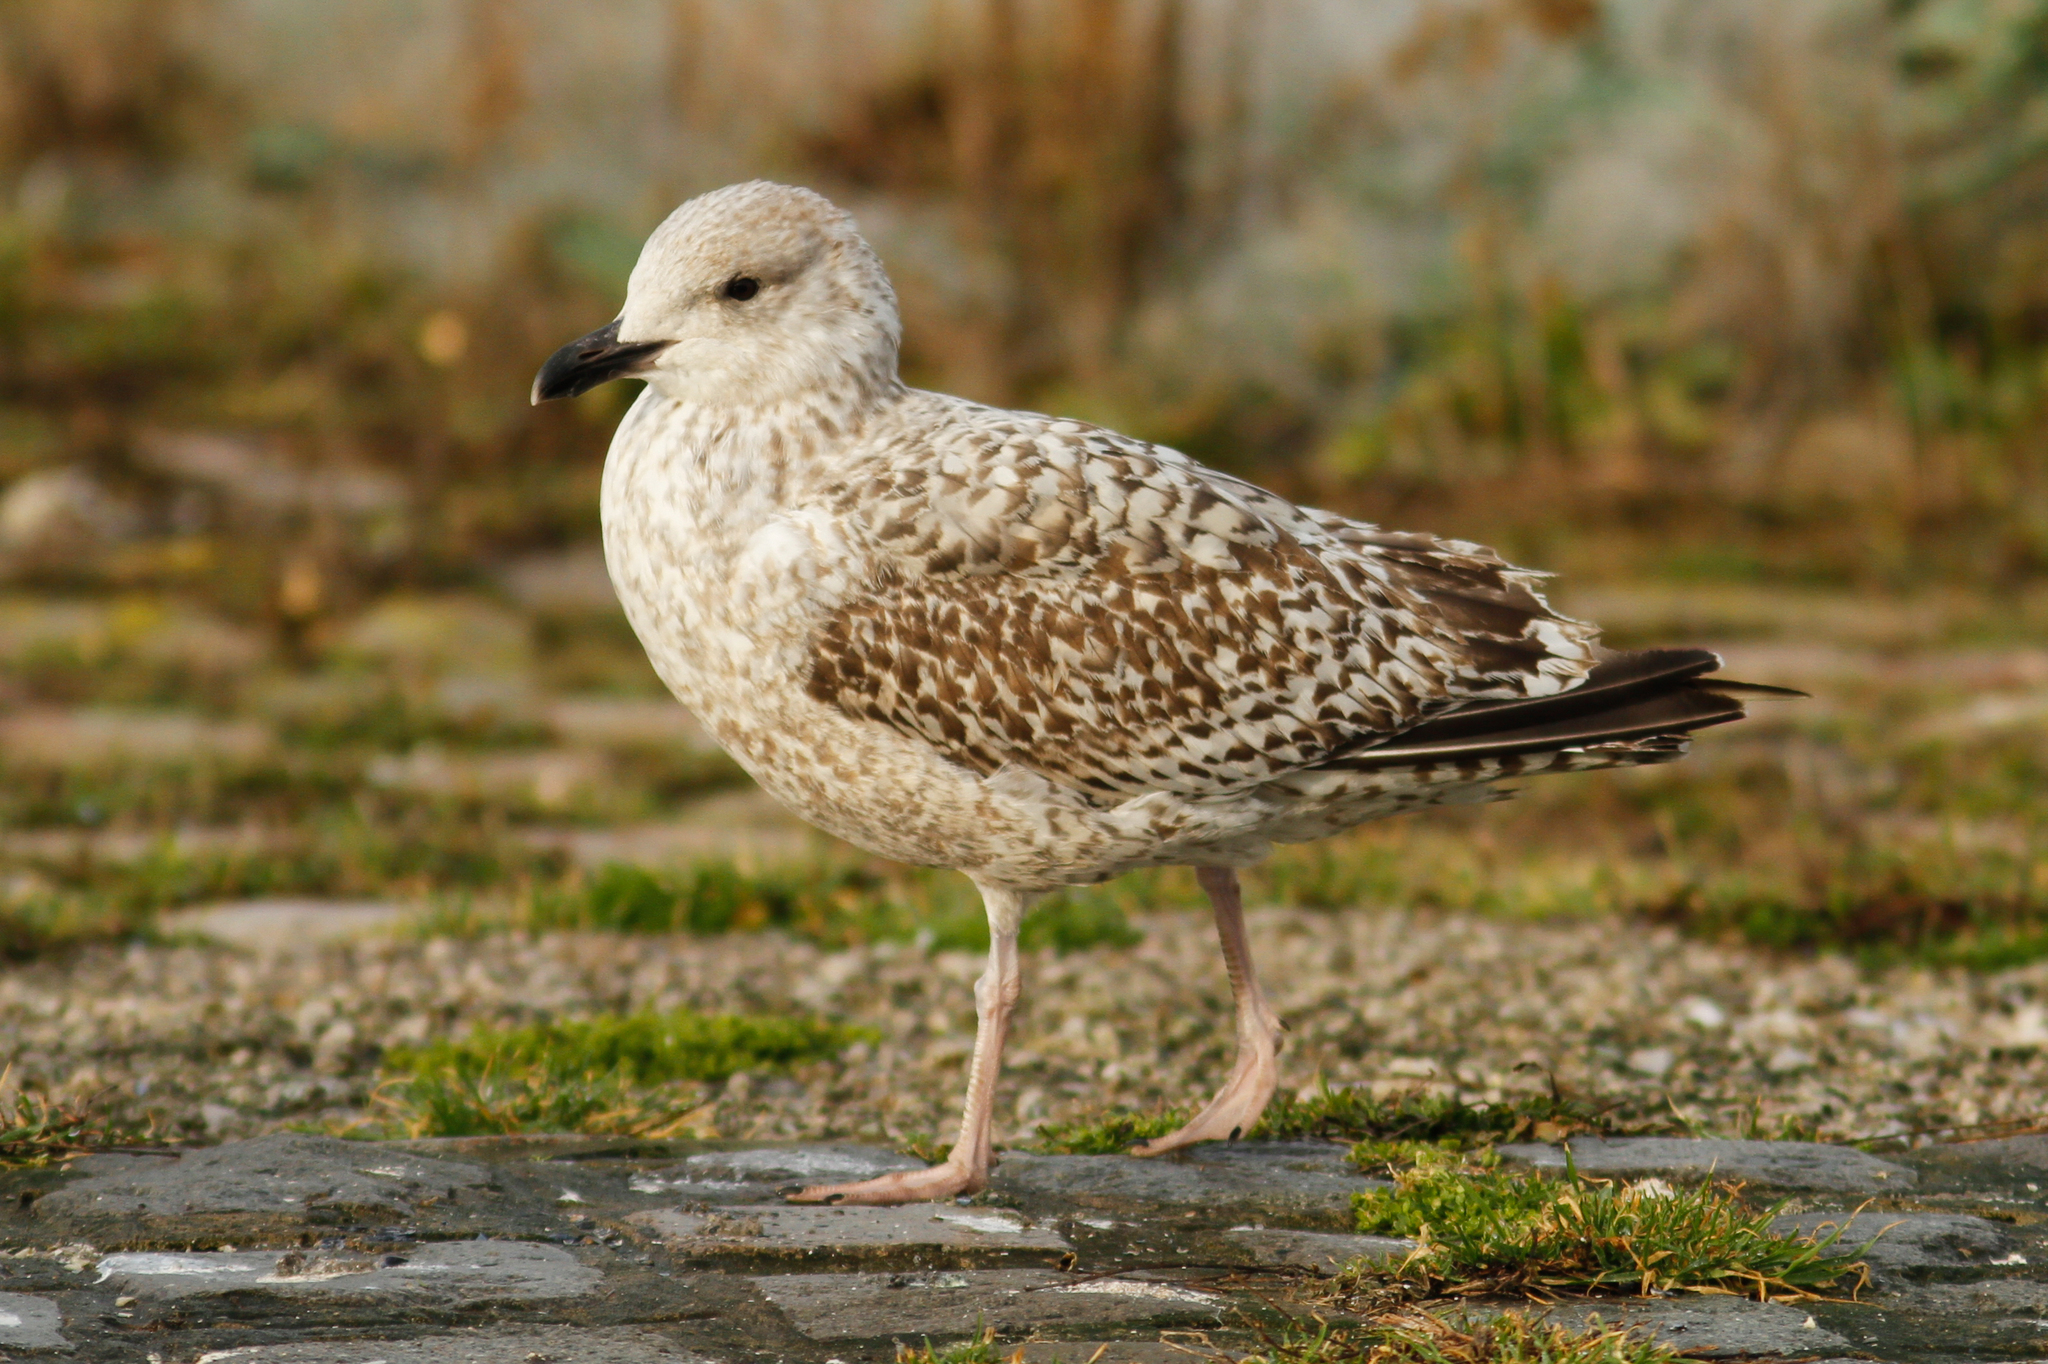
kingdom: Animalia
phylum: Chordata
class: Aves
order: Charadriiformes
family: Laridae
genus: Larus
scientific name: Larus argentatus
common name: Herring gull
